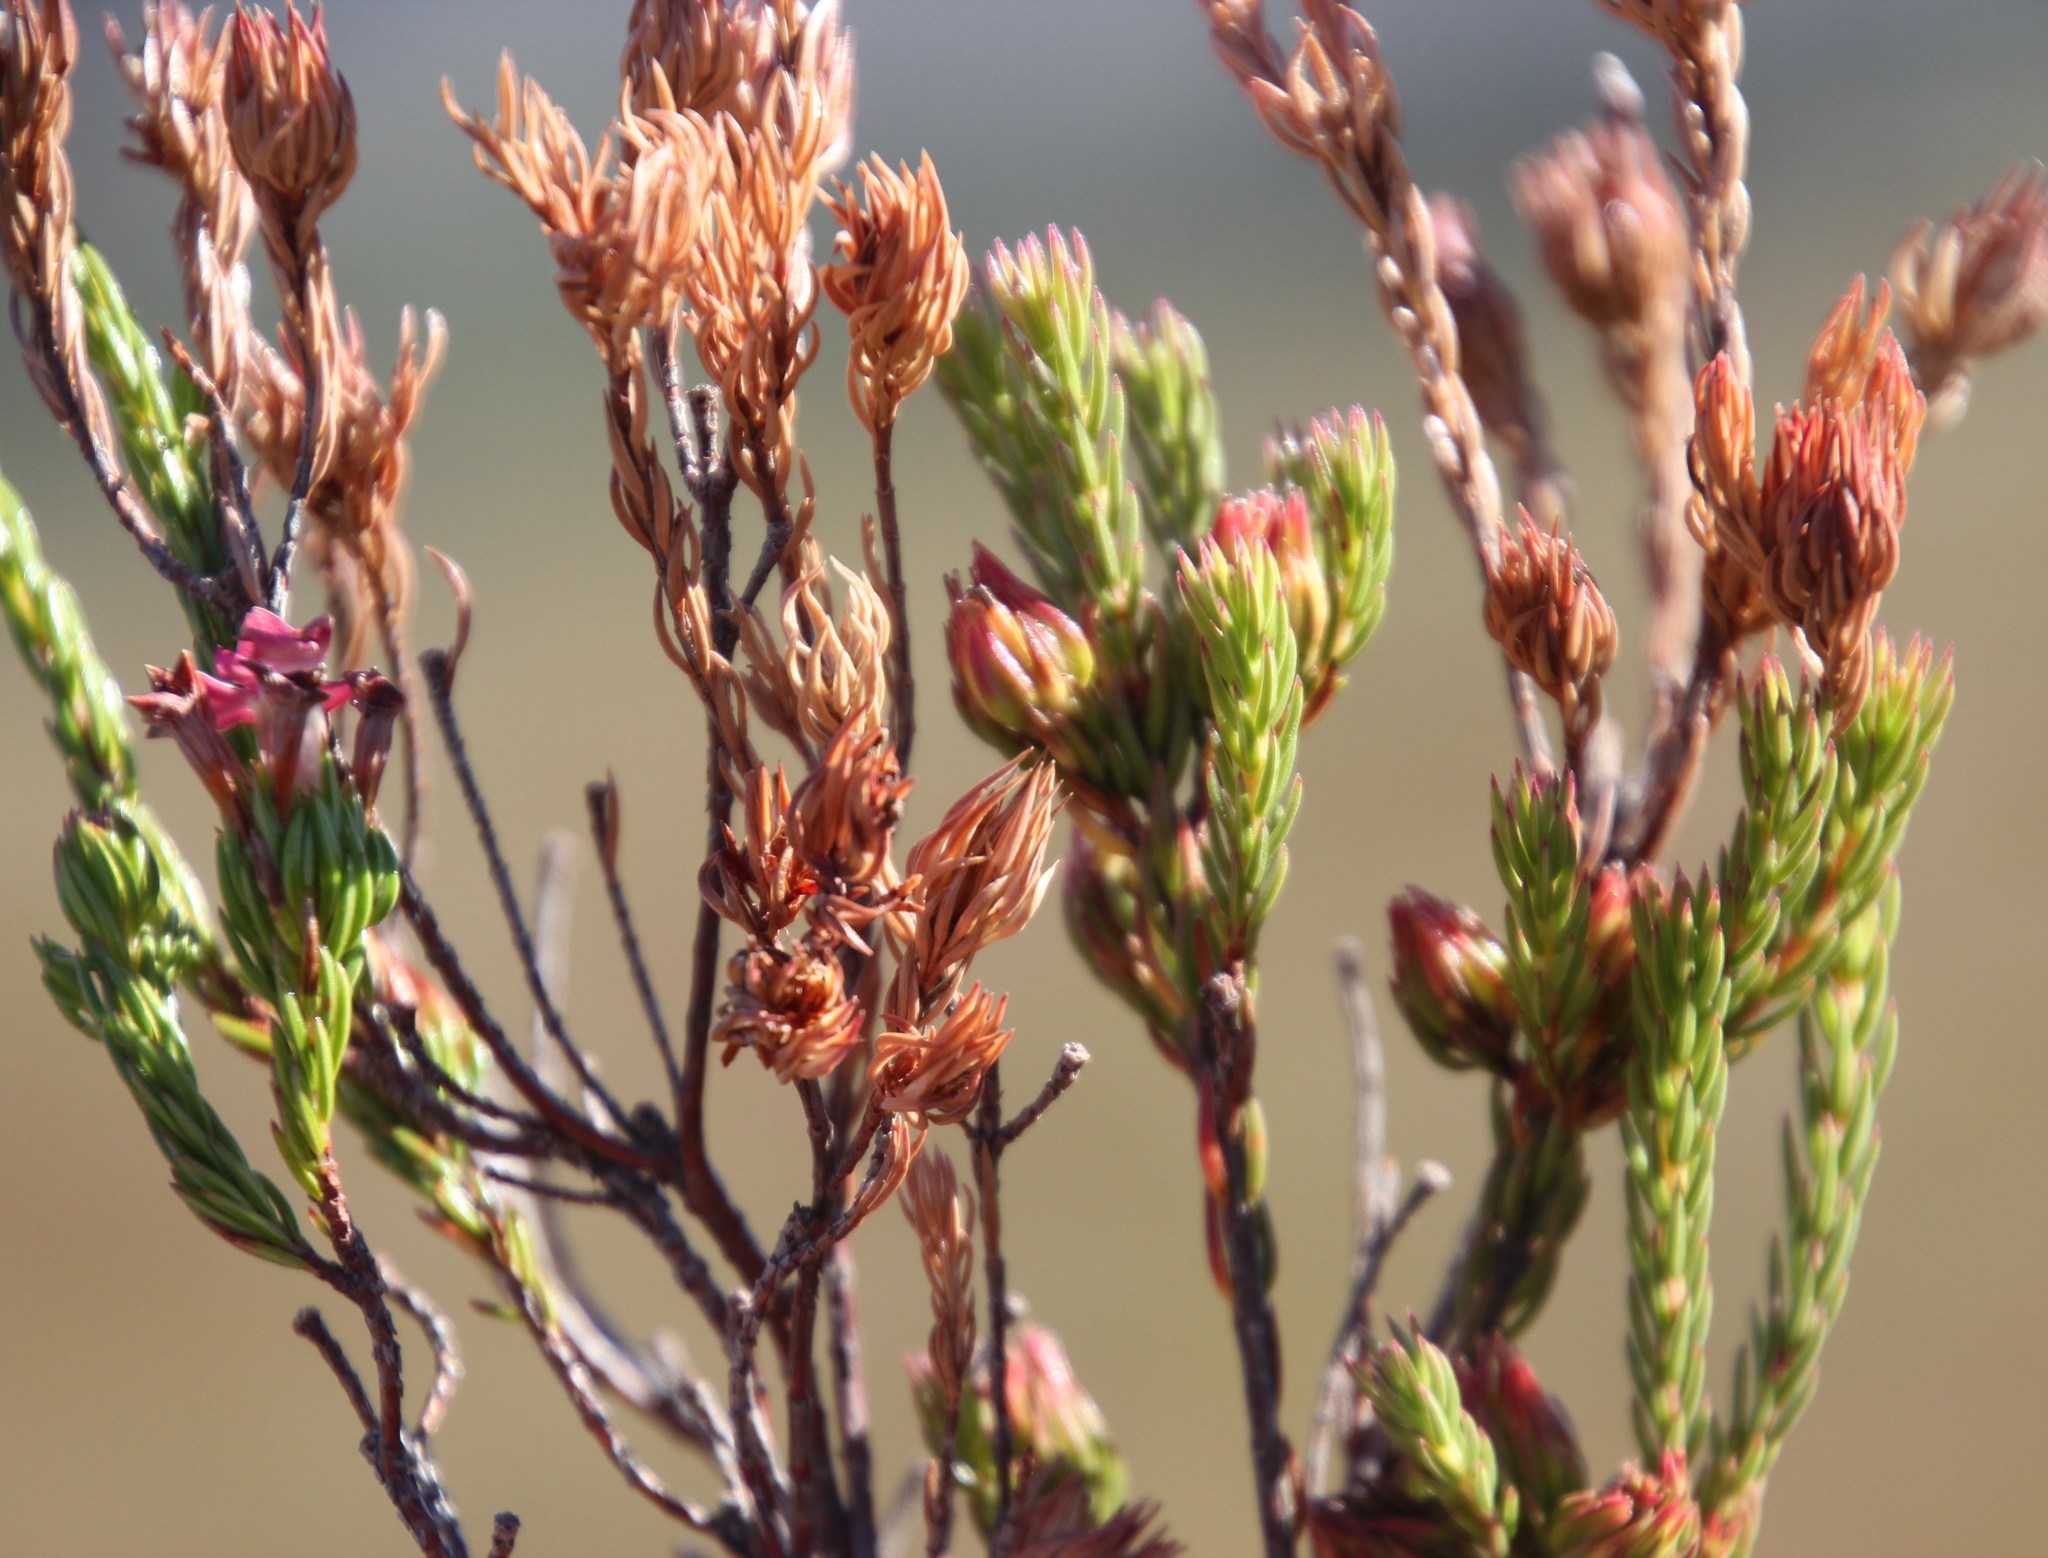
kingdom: Plantae
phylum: Tracheophyta
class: Magnoliopsida
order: Ericales
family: Ericaceae
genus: Erica
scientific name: Erica fastigiata
